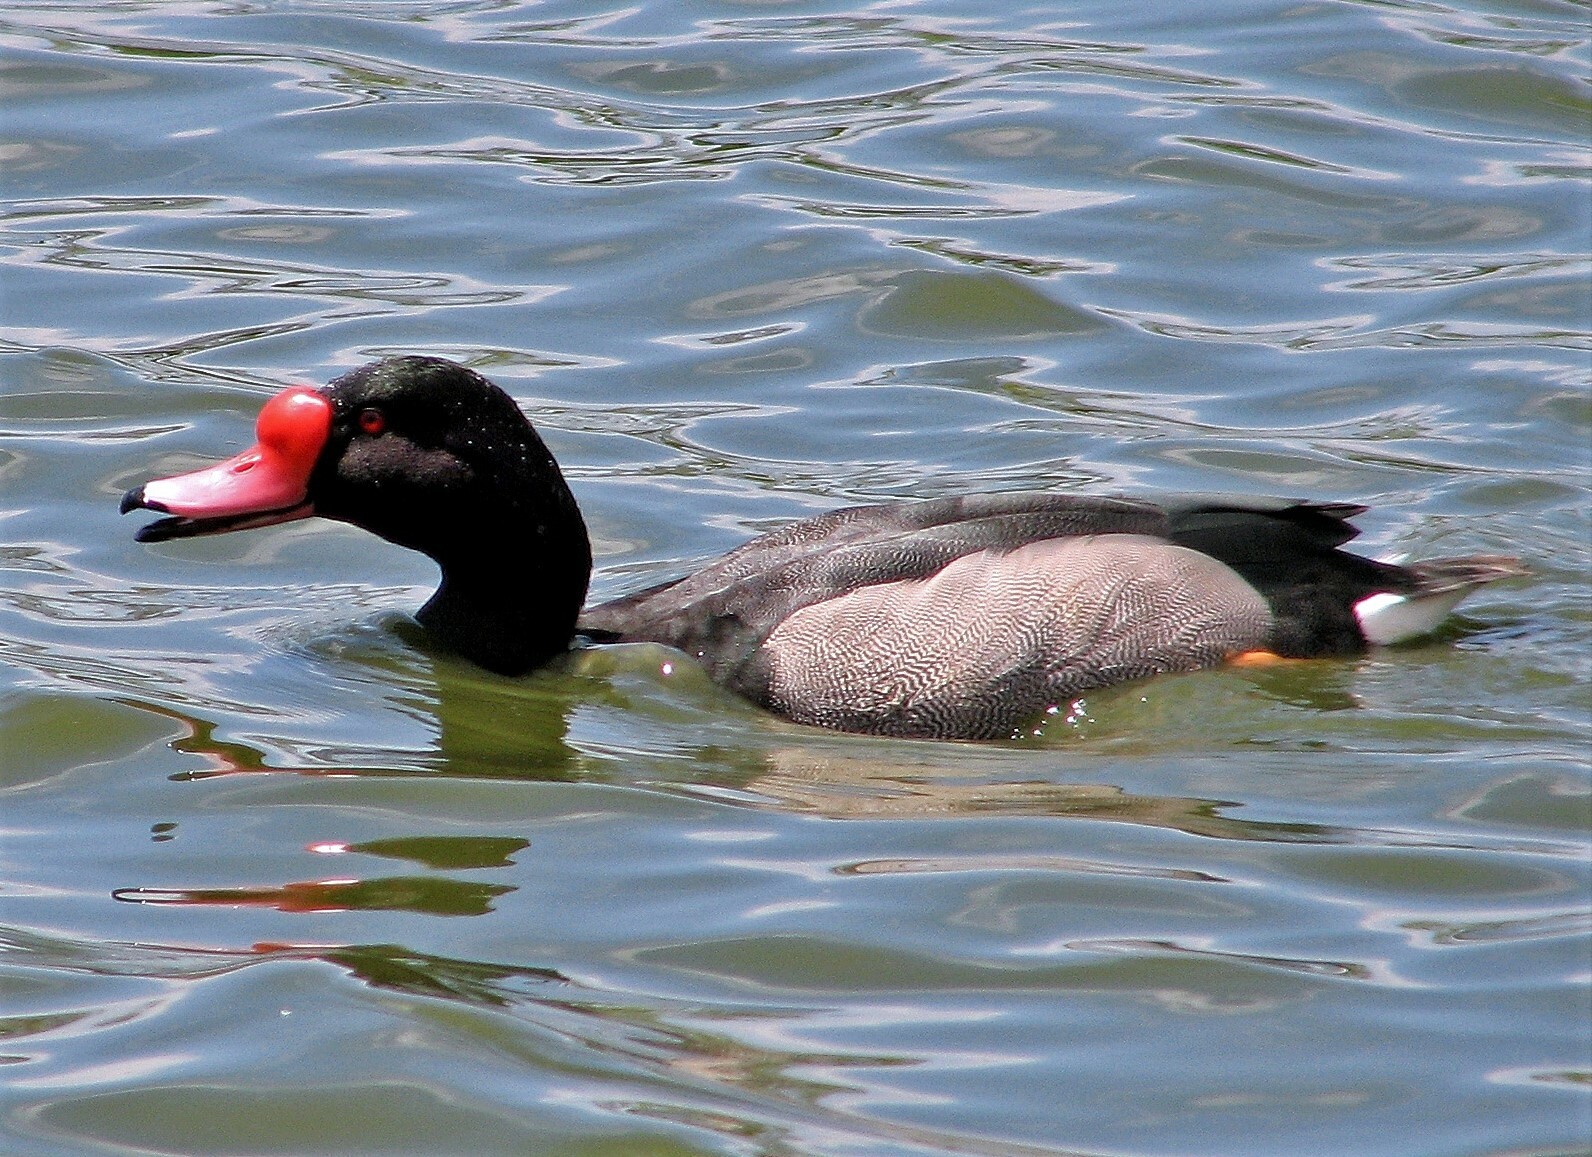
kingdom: Animalia
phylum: Chordata
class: Aves
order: Anseriformes
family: Anatidae
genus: Netta
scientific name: Netta peposaca
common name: Rosy-billed pochard
